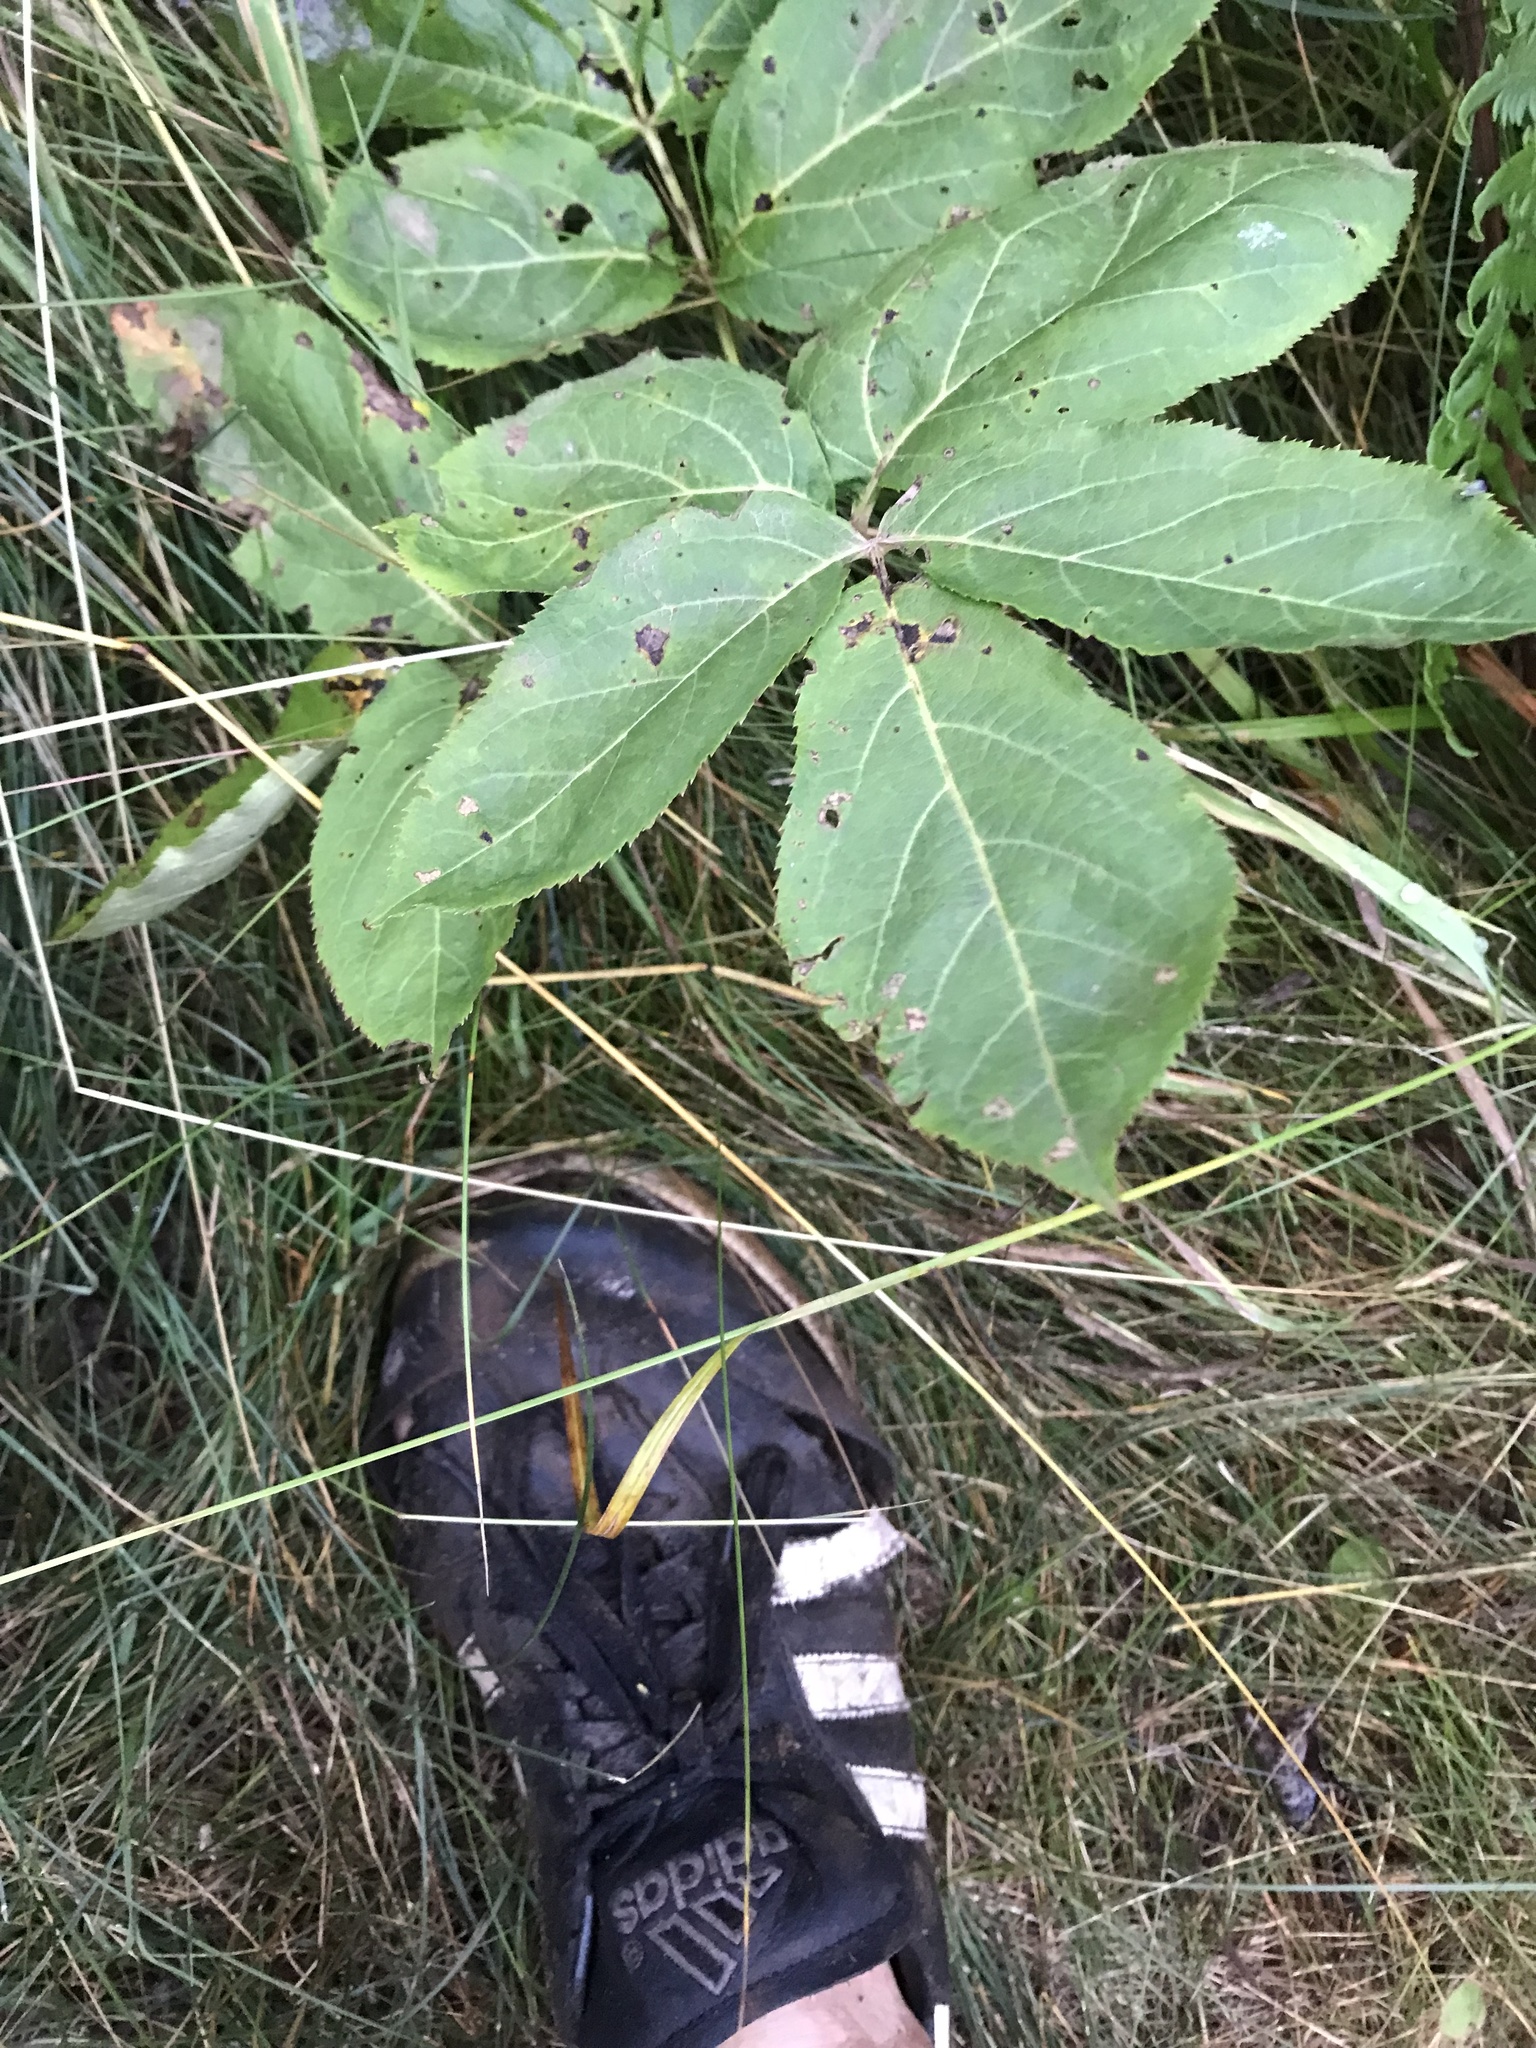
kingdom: Plantae
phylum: Tracheophyta
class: Magnoliopsida
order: Apiales
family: Araliaceae
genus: Aralia
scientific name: Aralia nudicaulis
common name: Wild sarsaparilla
